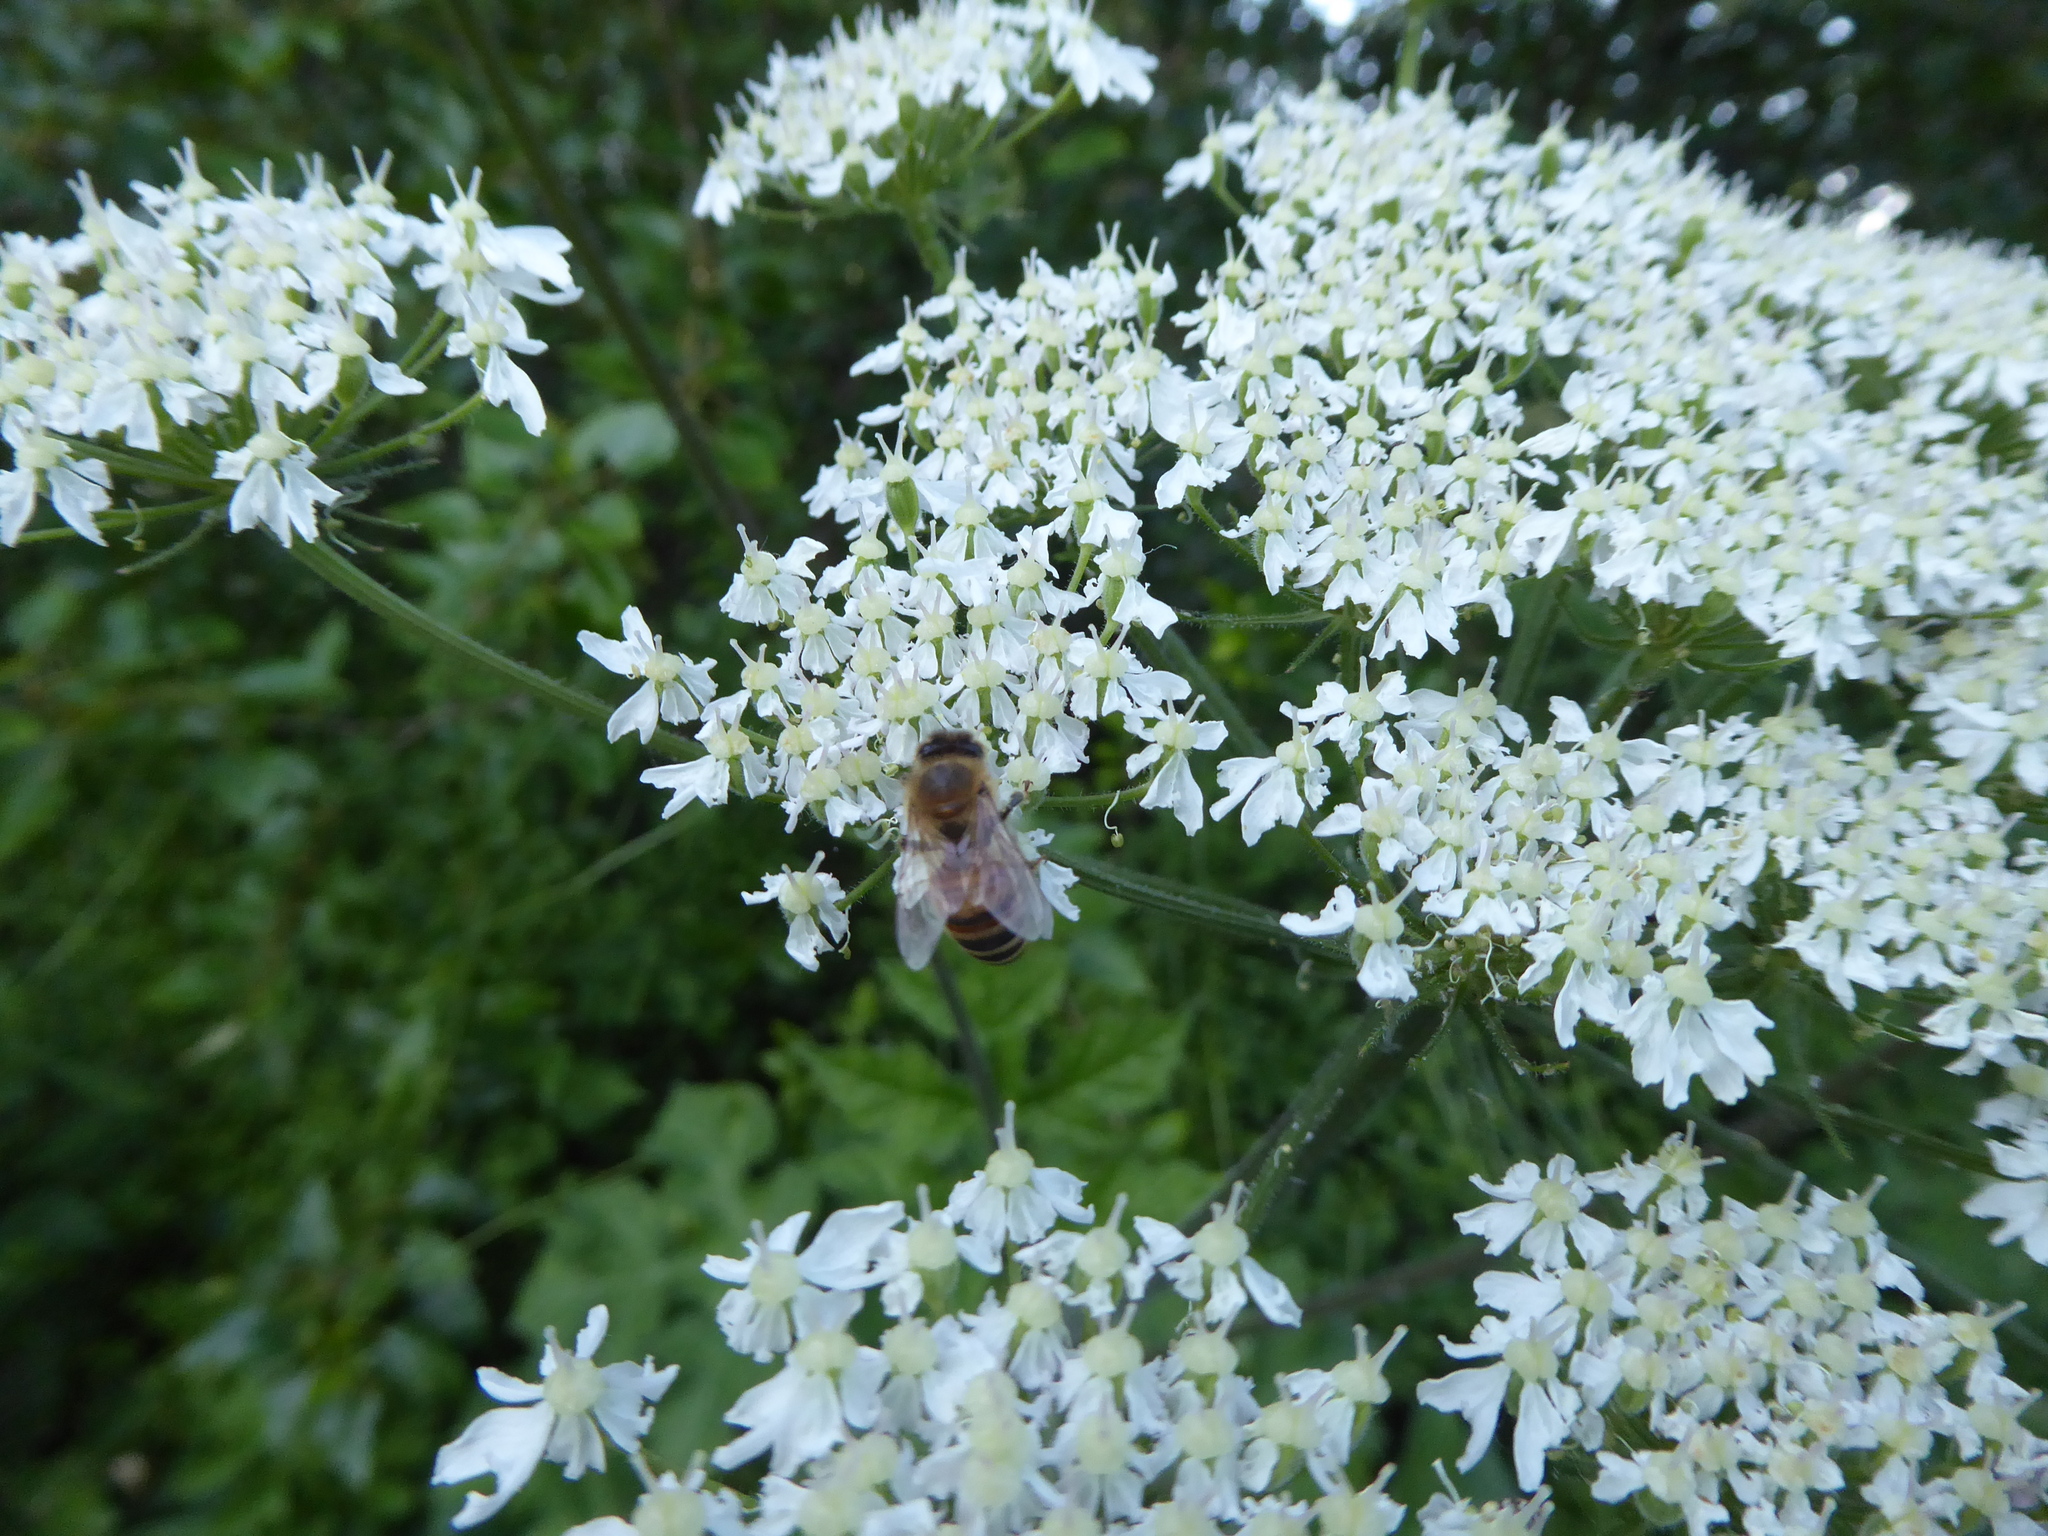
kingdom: Animalia
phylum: Arthropoda
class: Insecta
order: Hymenoptera
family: Apidae
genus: Apis
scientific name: Apis mellifera
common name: Honey bee
